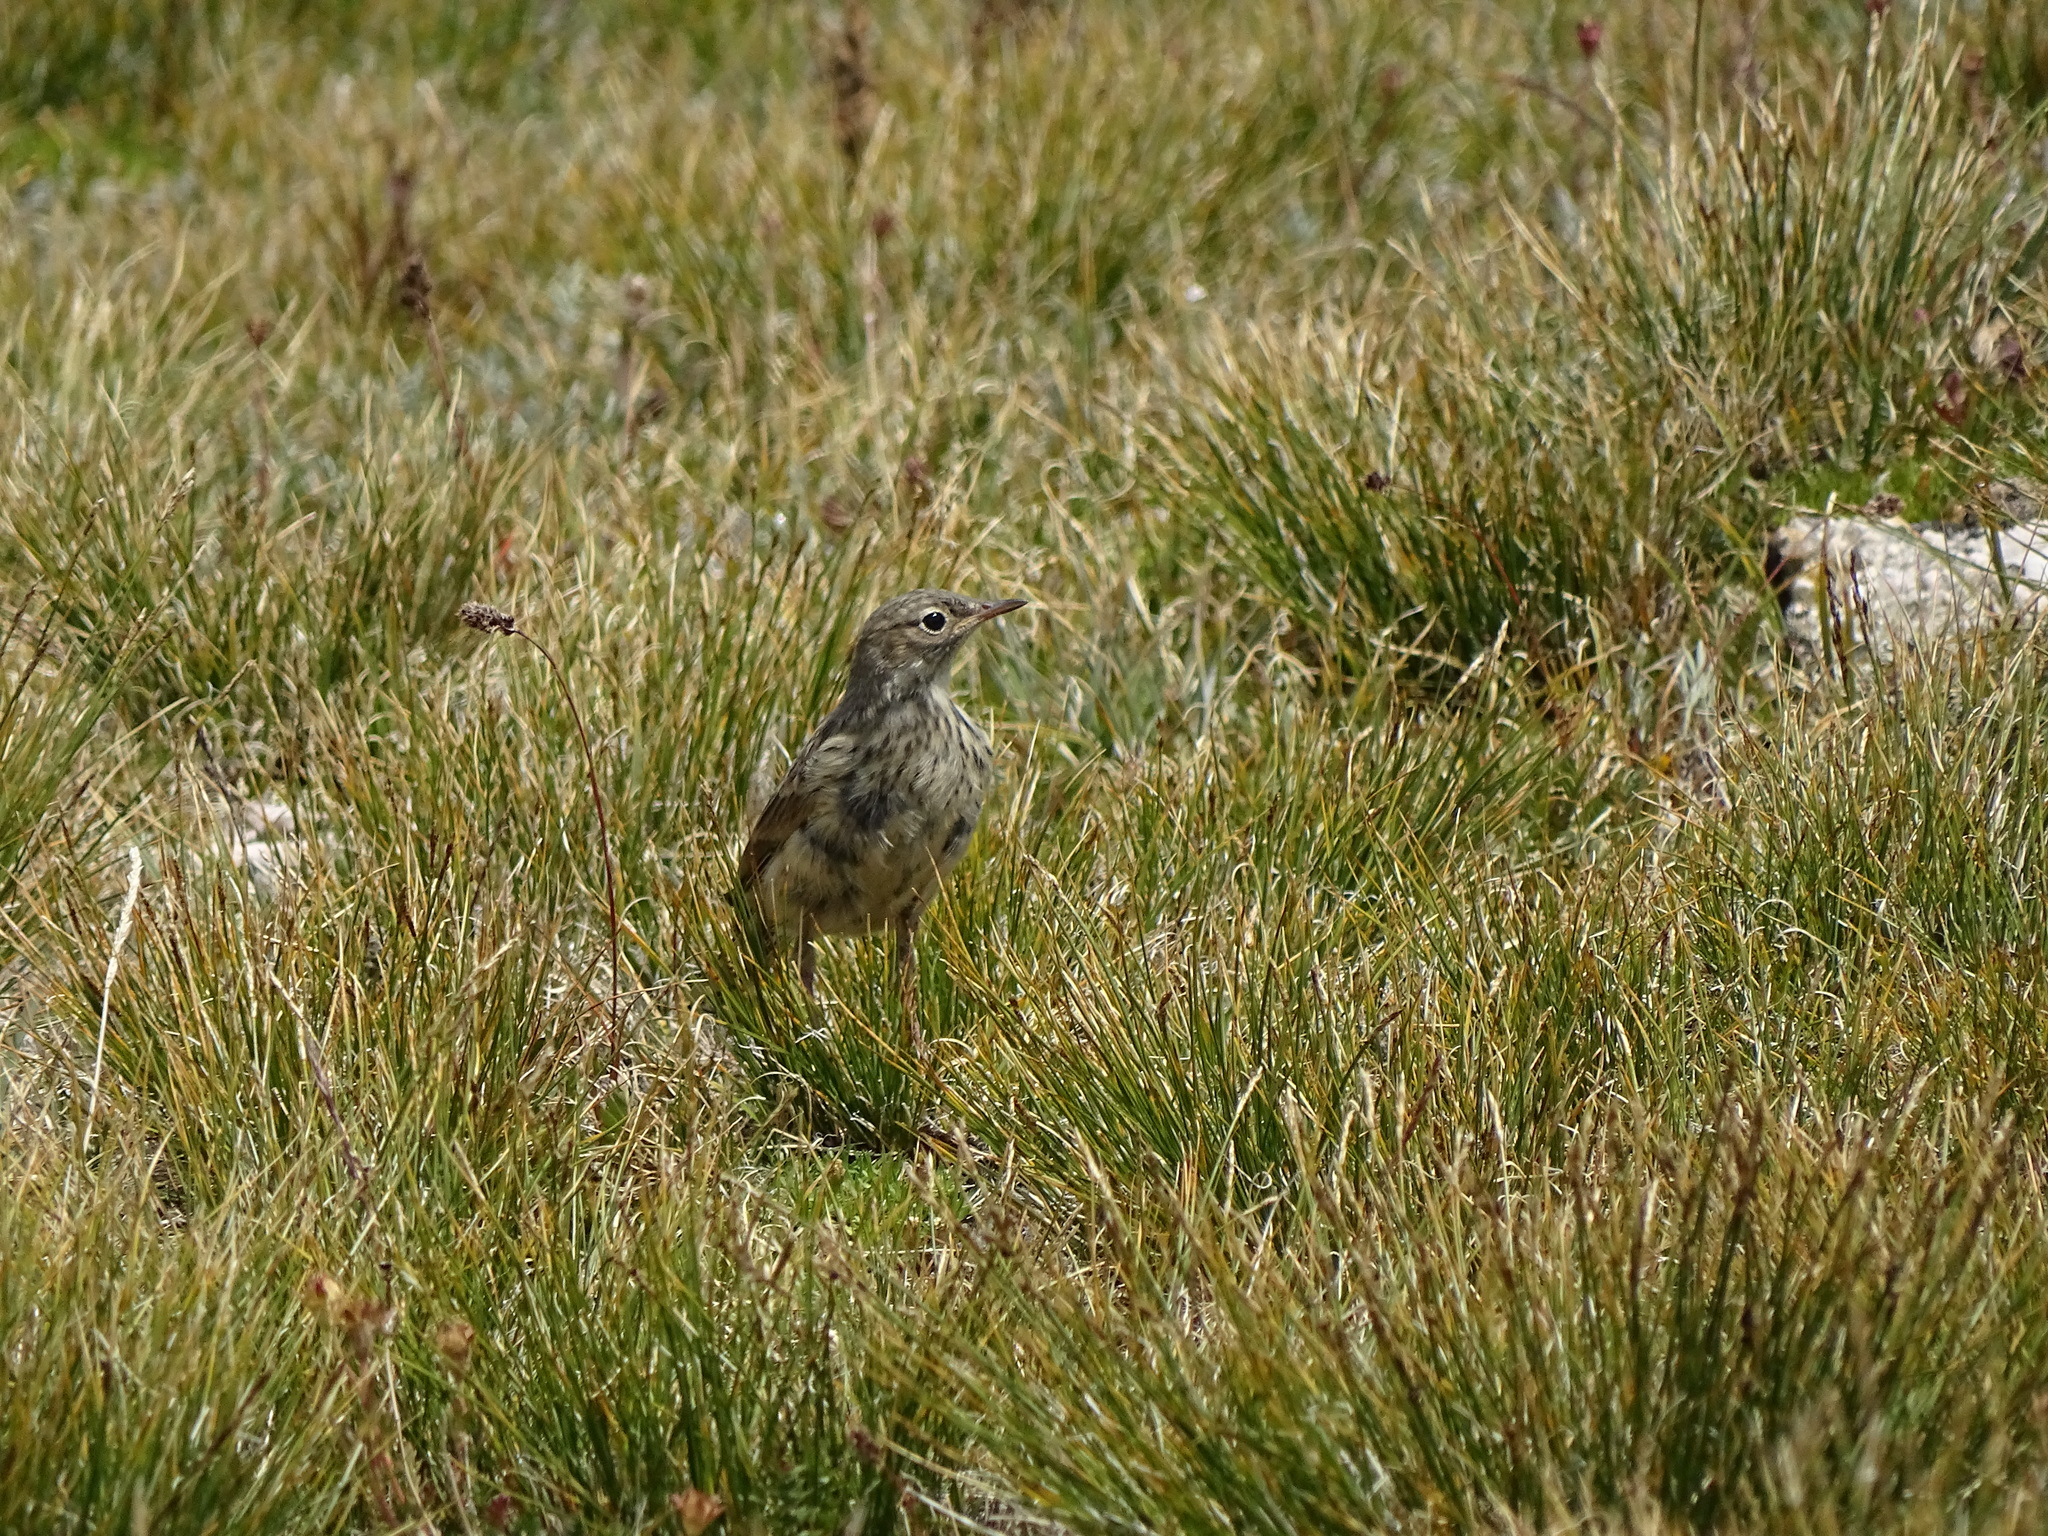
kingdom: Animalia
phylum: Chordata
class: Aves
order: Passeriformes
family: Motacillidae
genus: Anthus
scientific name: Anthus rubescens
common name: Buff-bellied pipit
